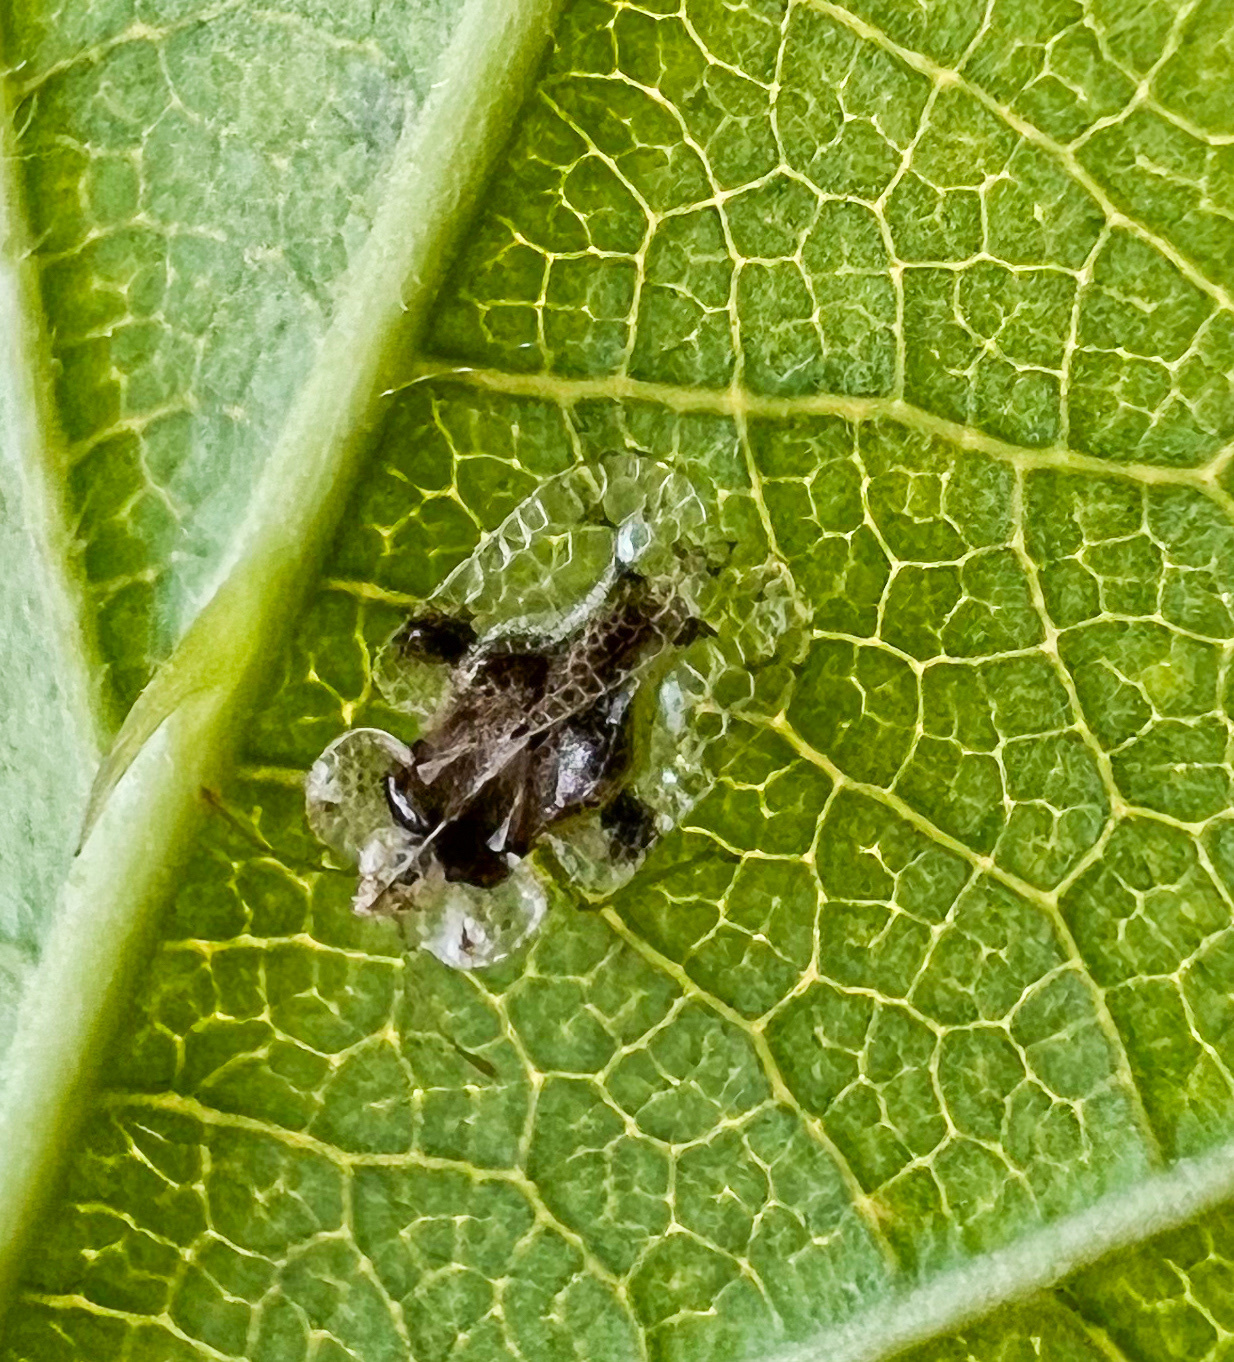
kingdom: Animalia
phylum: Arthropoda
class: Insecta
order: Hemiptera
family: Tingidae
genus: Corythucha
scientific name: Corythucha arcuata
